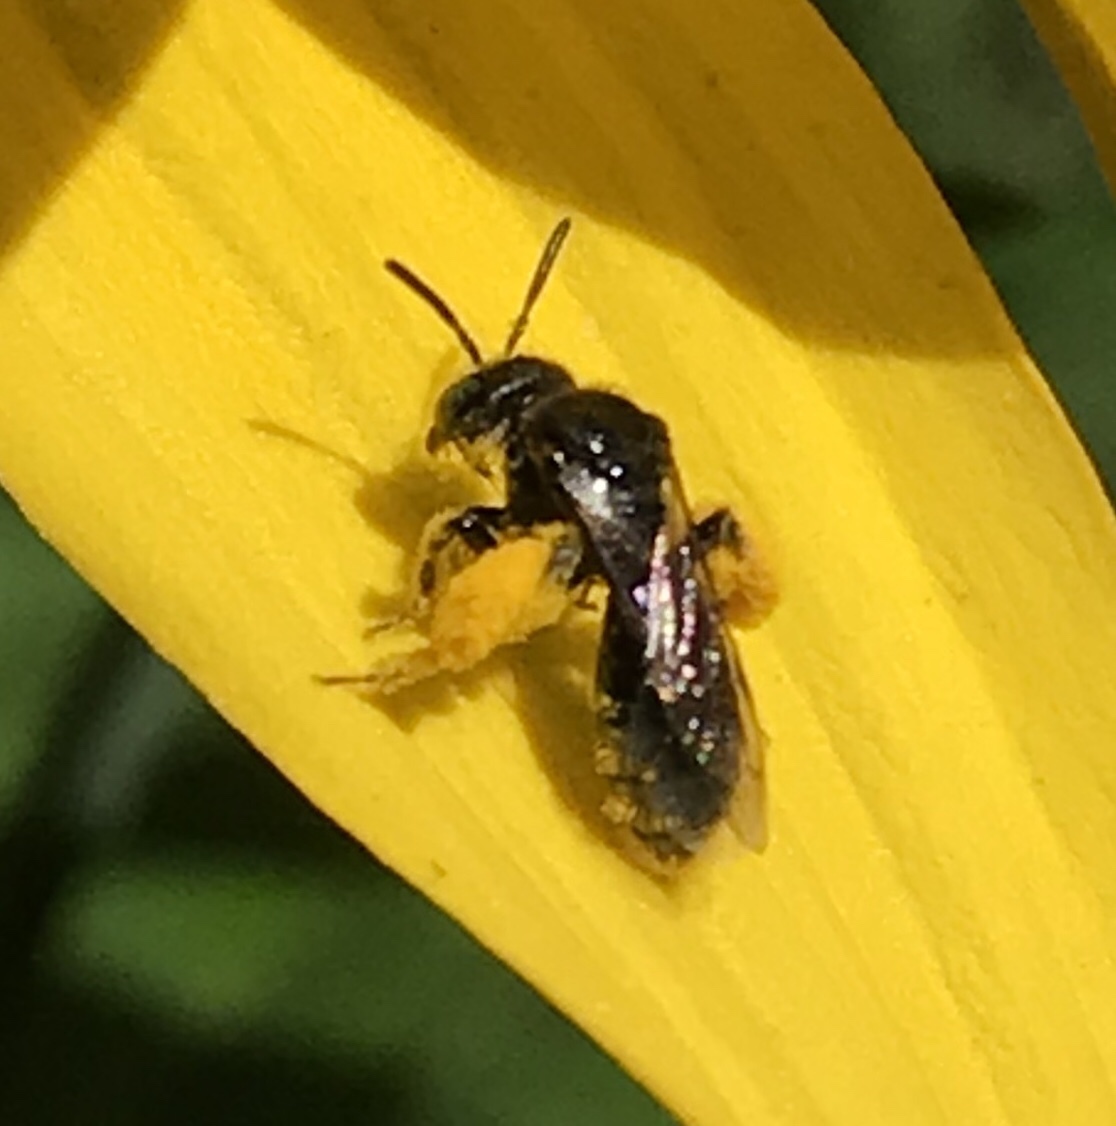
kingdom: Animalia
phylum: Arthropoda
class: Insecta
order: Hymenoptera
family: Andrenidae
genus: Protandrena
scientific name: Protandrena
